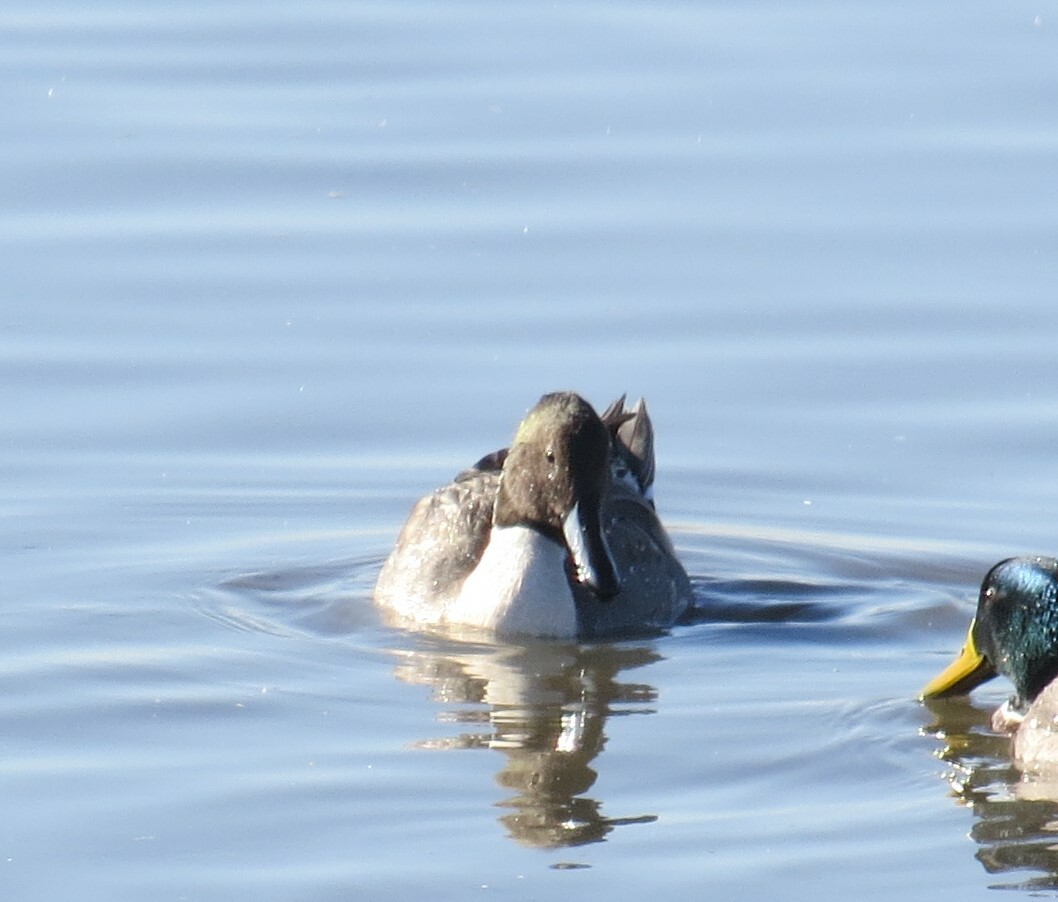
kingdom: Animalia
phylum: Chordata
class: Aves
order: Anseriformes
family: Anatidae
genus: Anas
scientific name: Anas acuta
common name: Northern pintail
